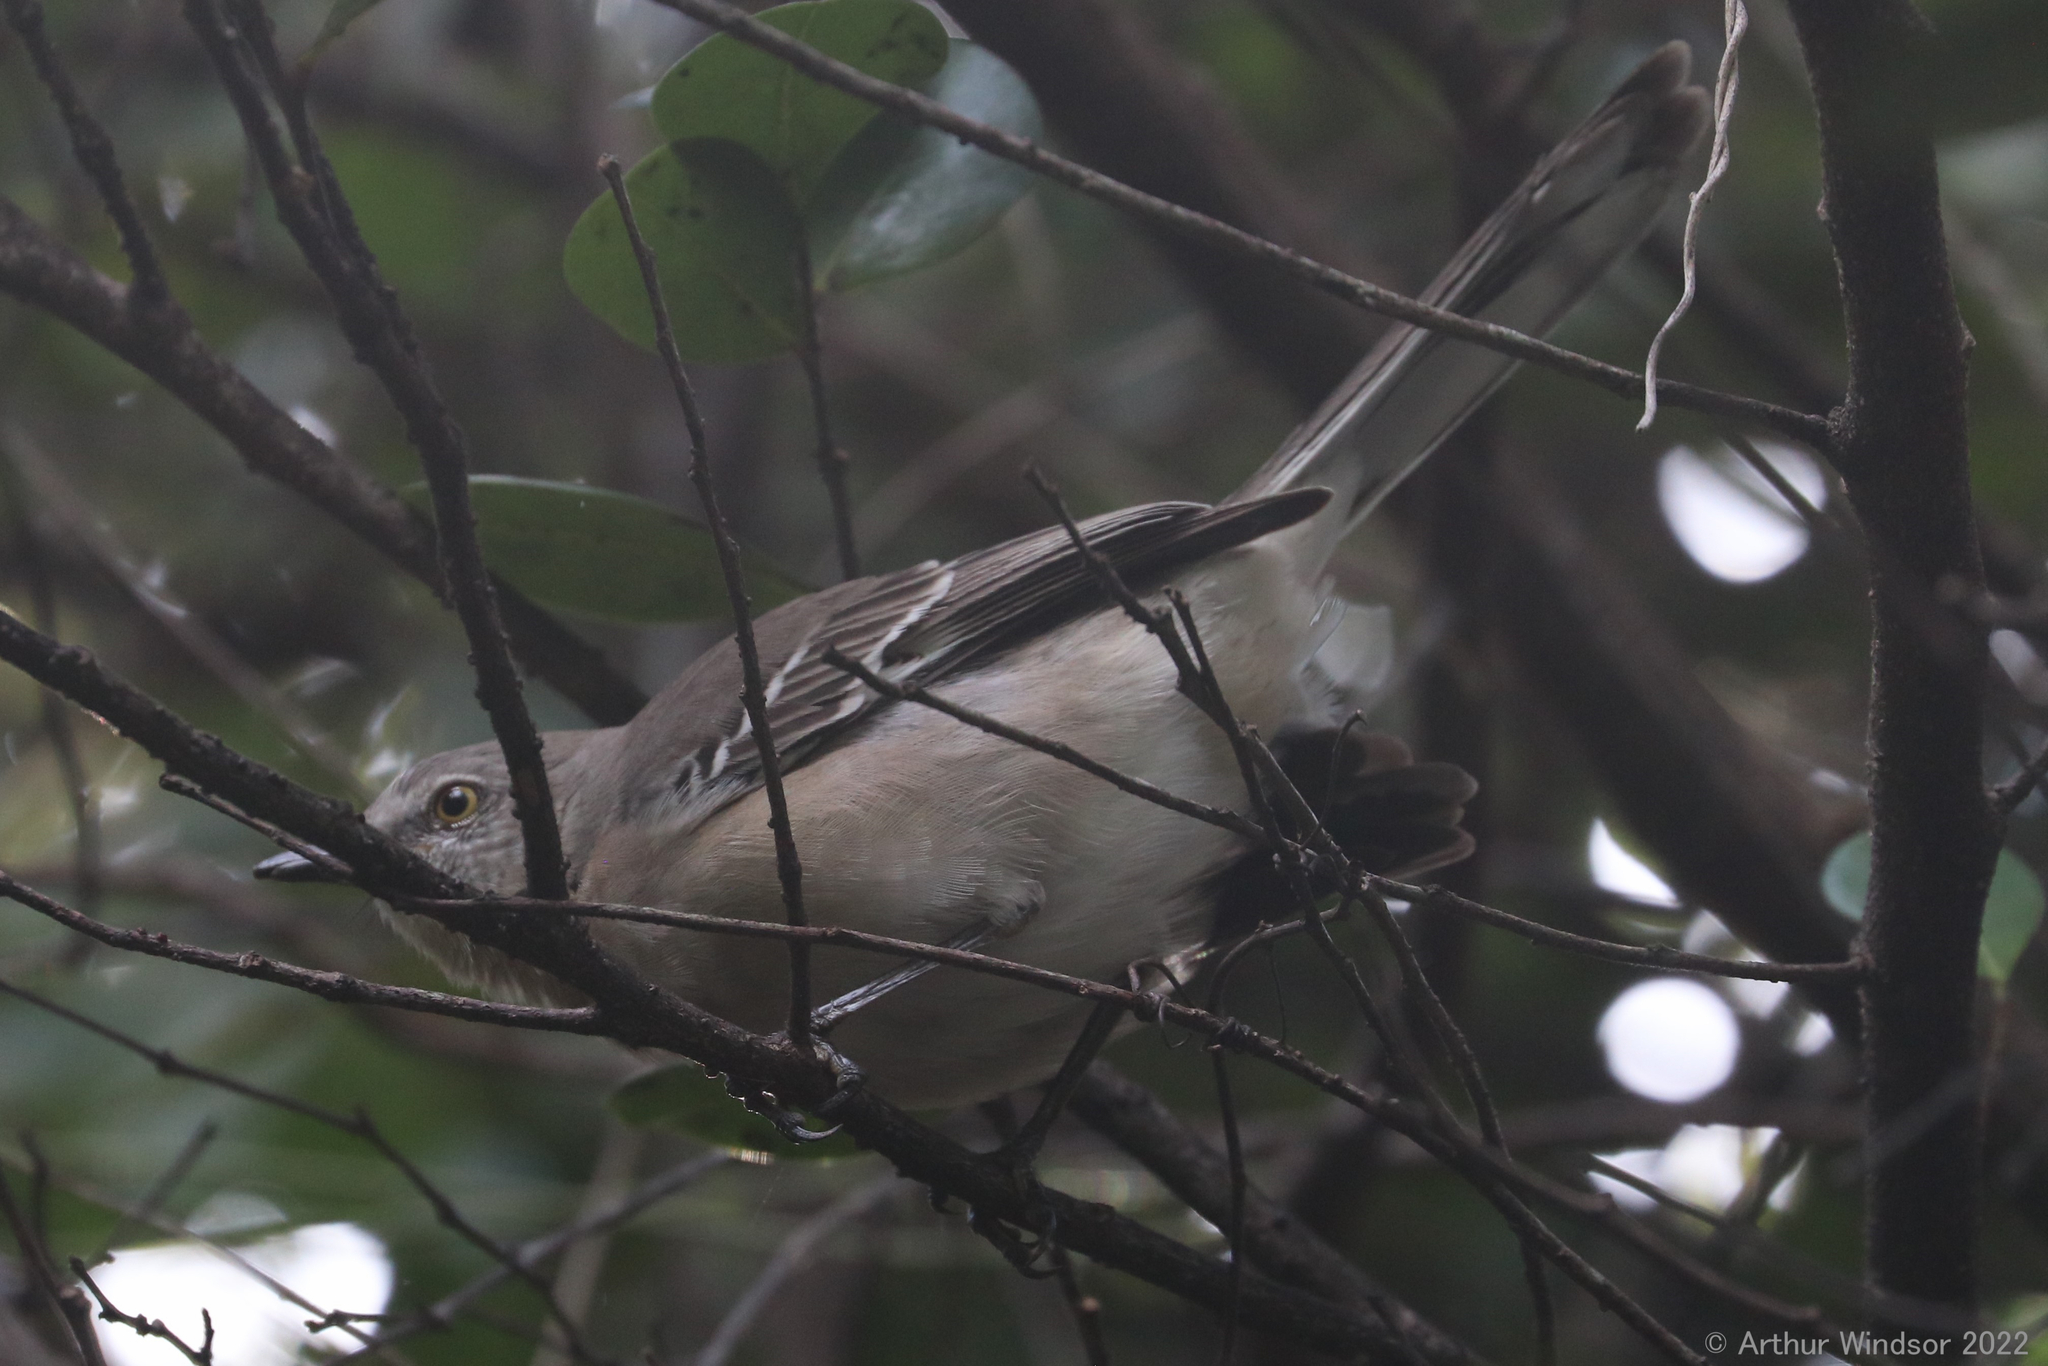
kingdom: Animalia
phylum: Chordata
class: Aves
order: Passeriformes
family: Mimidae
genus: Mimus
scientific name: Mimus polyglottos
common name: Northern mockingbird
